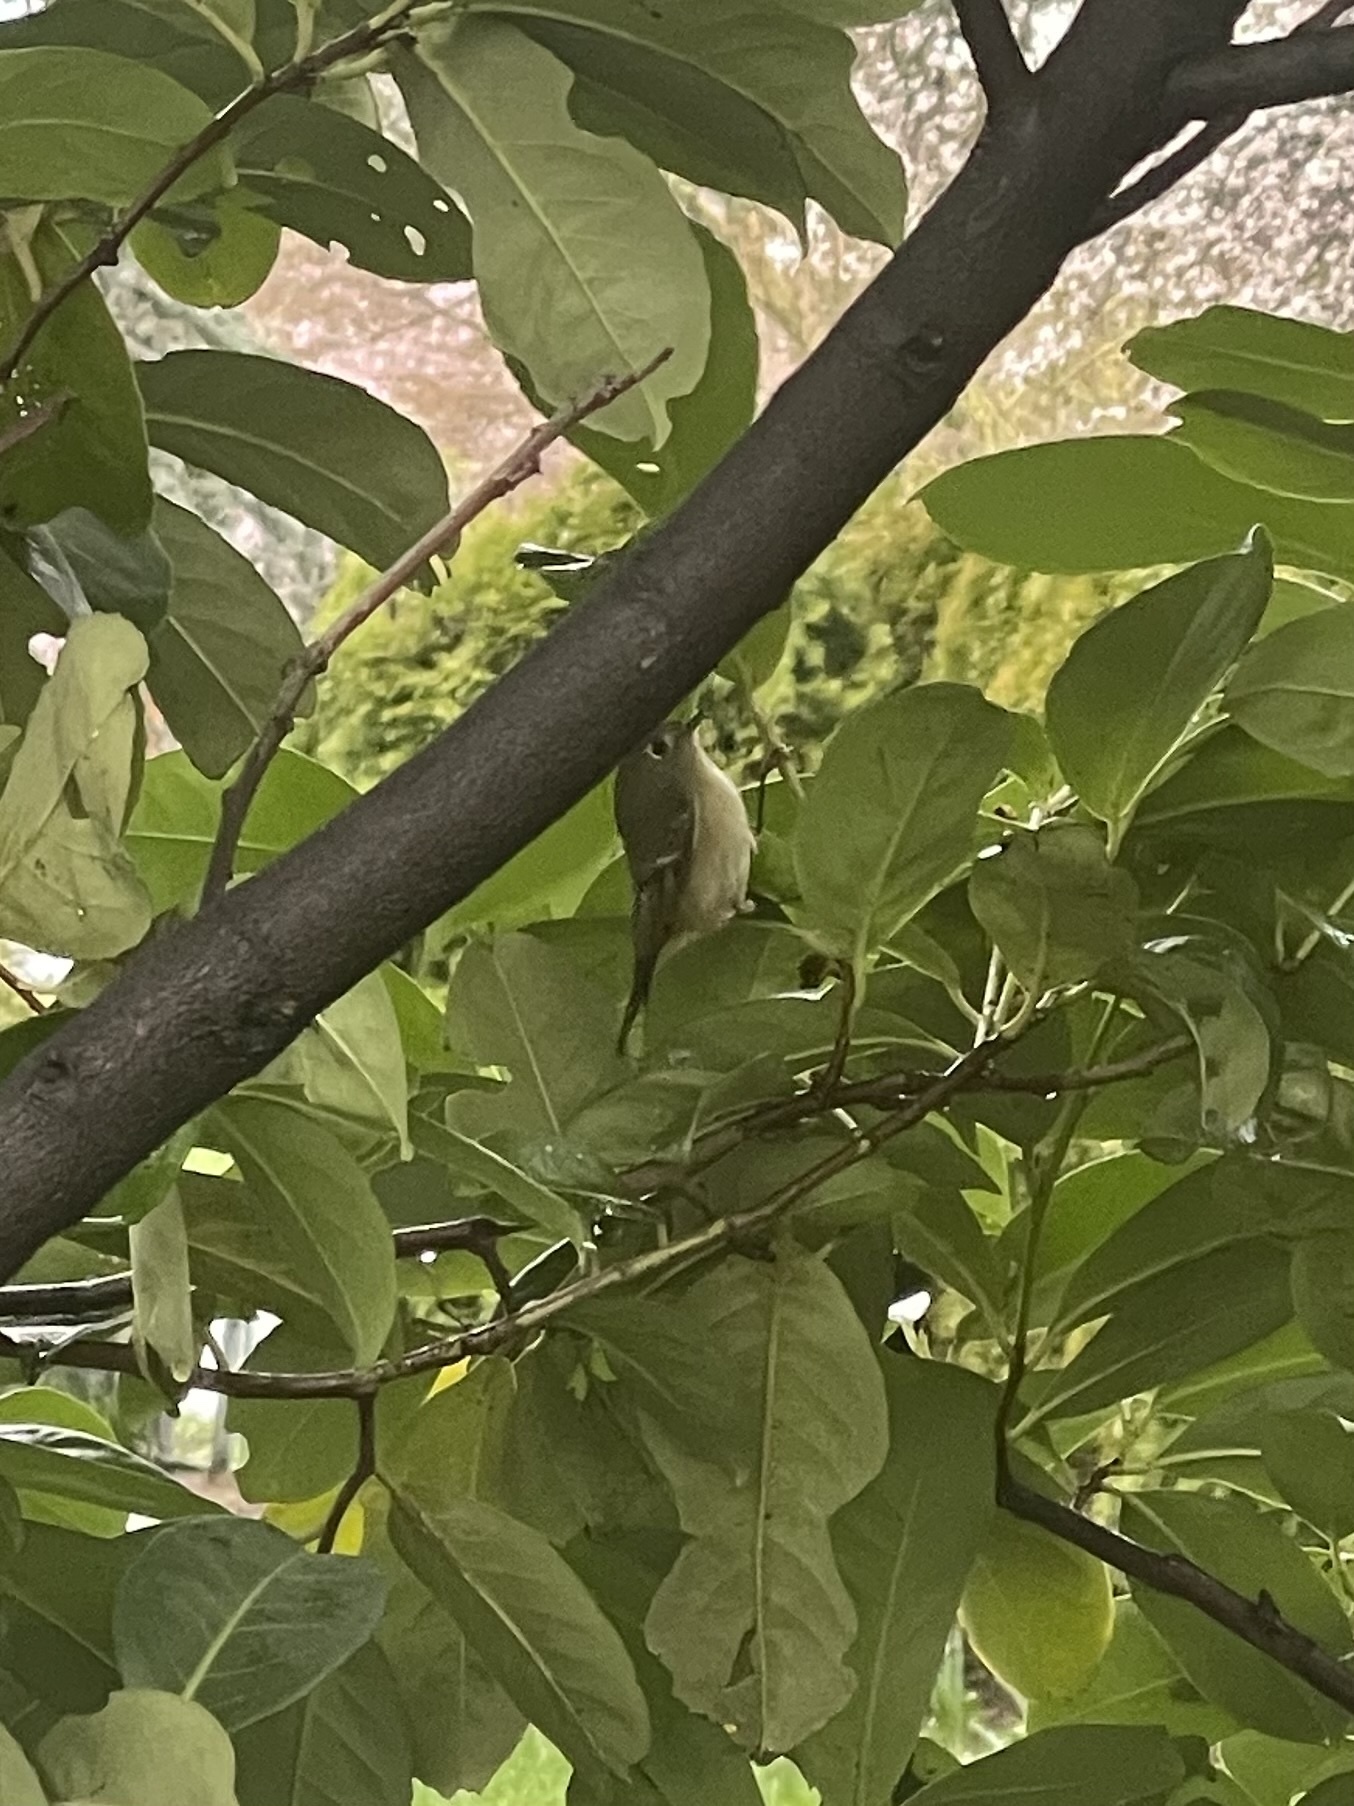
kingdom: Animalia
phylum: Chordata
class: Aves
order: Passeriformes
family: Regulidae
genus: Regulus
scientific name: Regulus calendula
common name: Ruby-crowned kinglet
